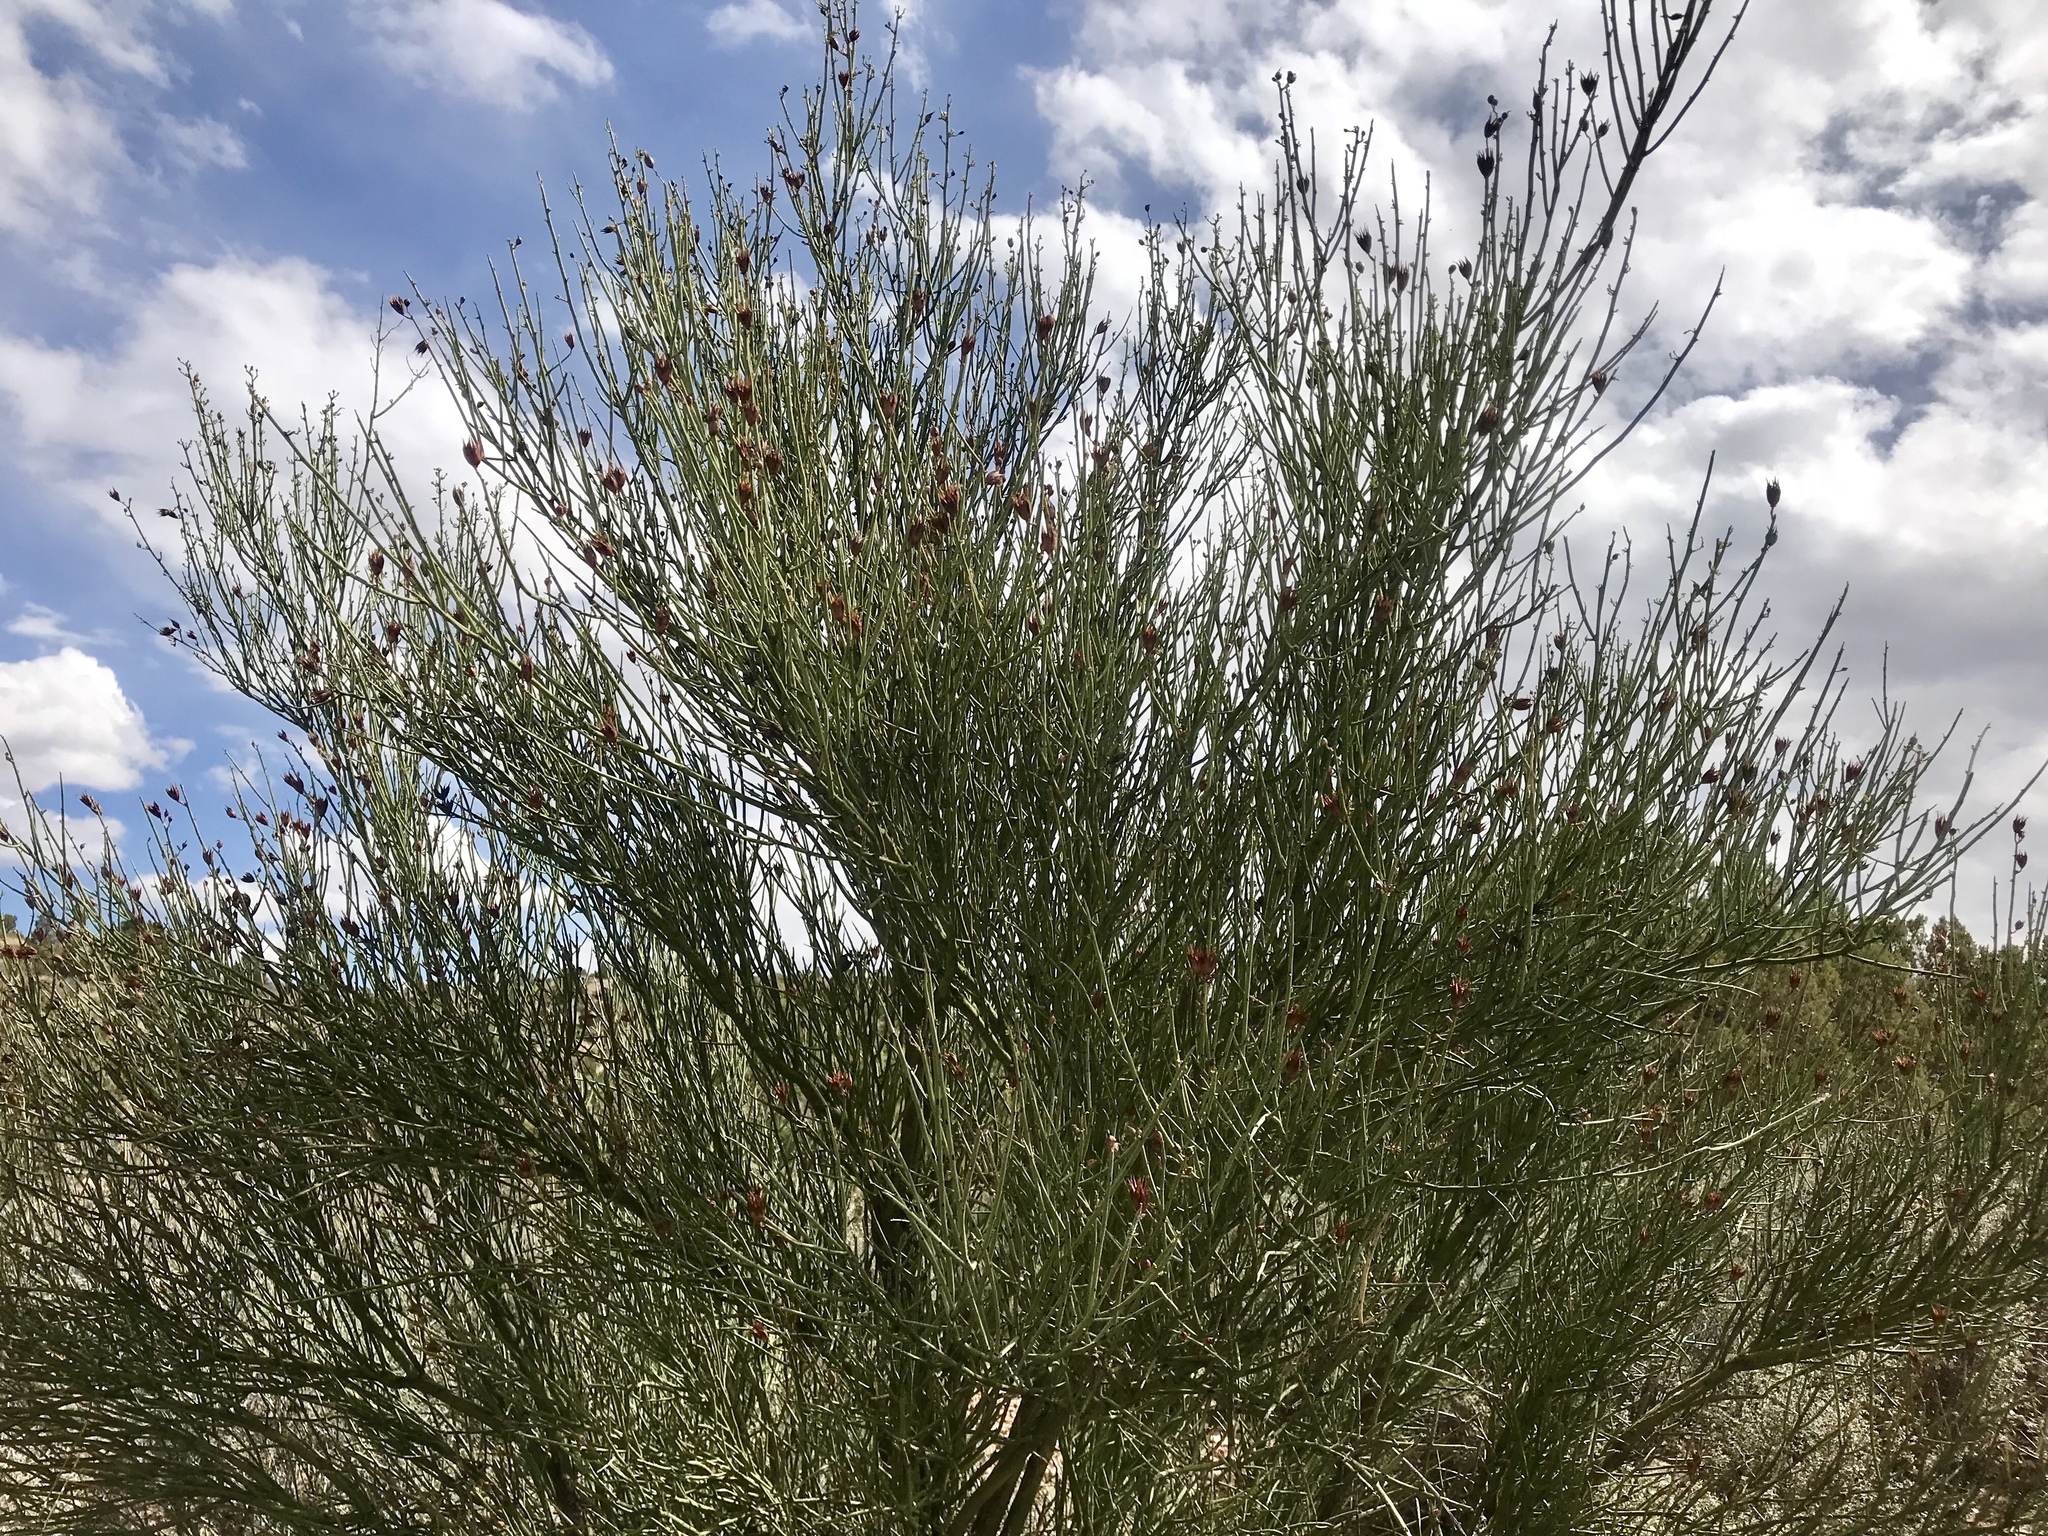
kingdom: Plantae
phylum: Tracheophyta
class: Magnoliopsida
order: Celastrales
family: Celastraceae
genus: Canotia
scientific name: Canotia holacantha
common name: Crucifixion thorns
